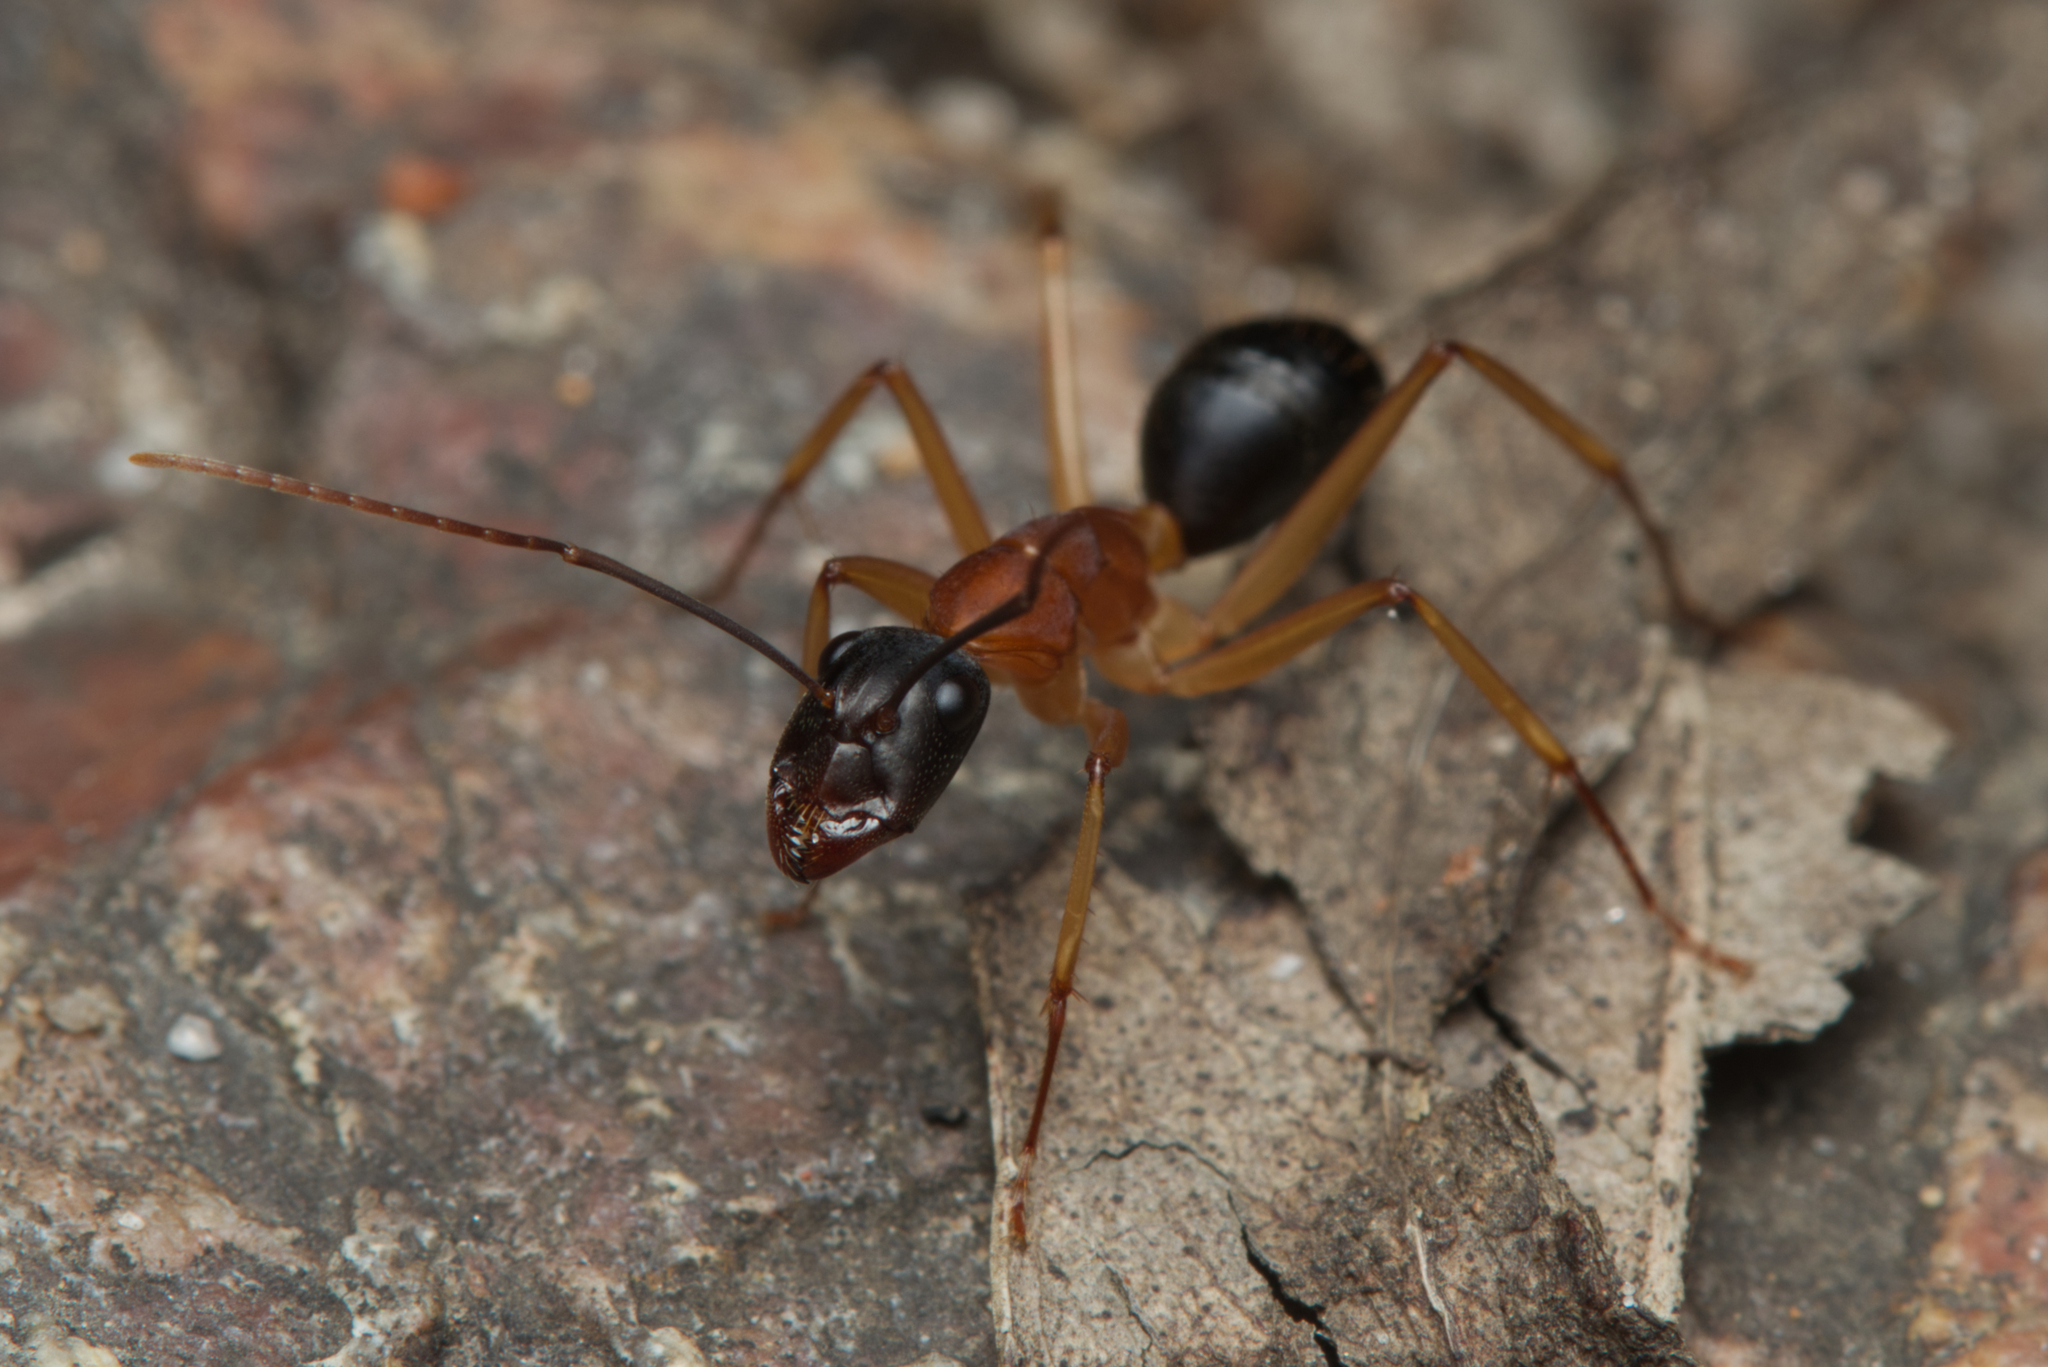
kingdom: Animalia
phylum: Arthropoda
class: Insecta
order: Hymenoptera
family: Formicidae
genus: Camponotus
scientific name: Camponotus nigriceps
